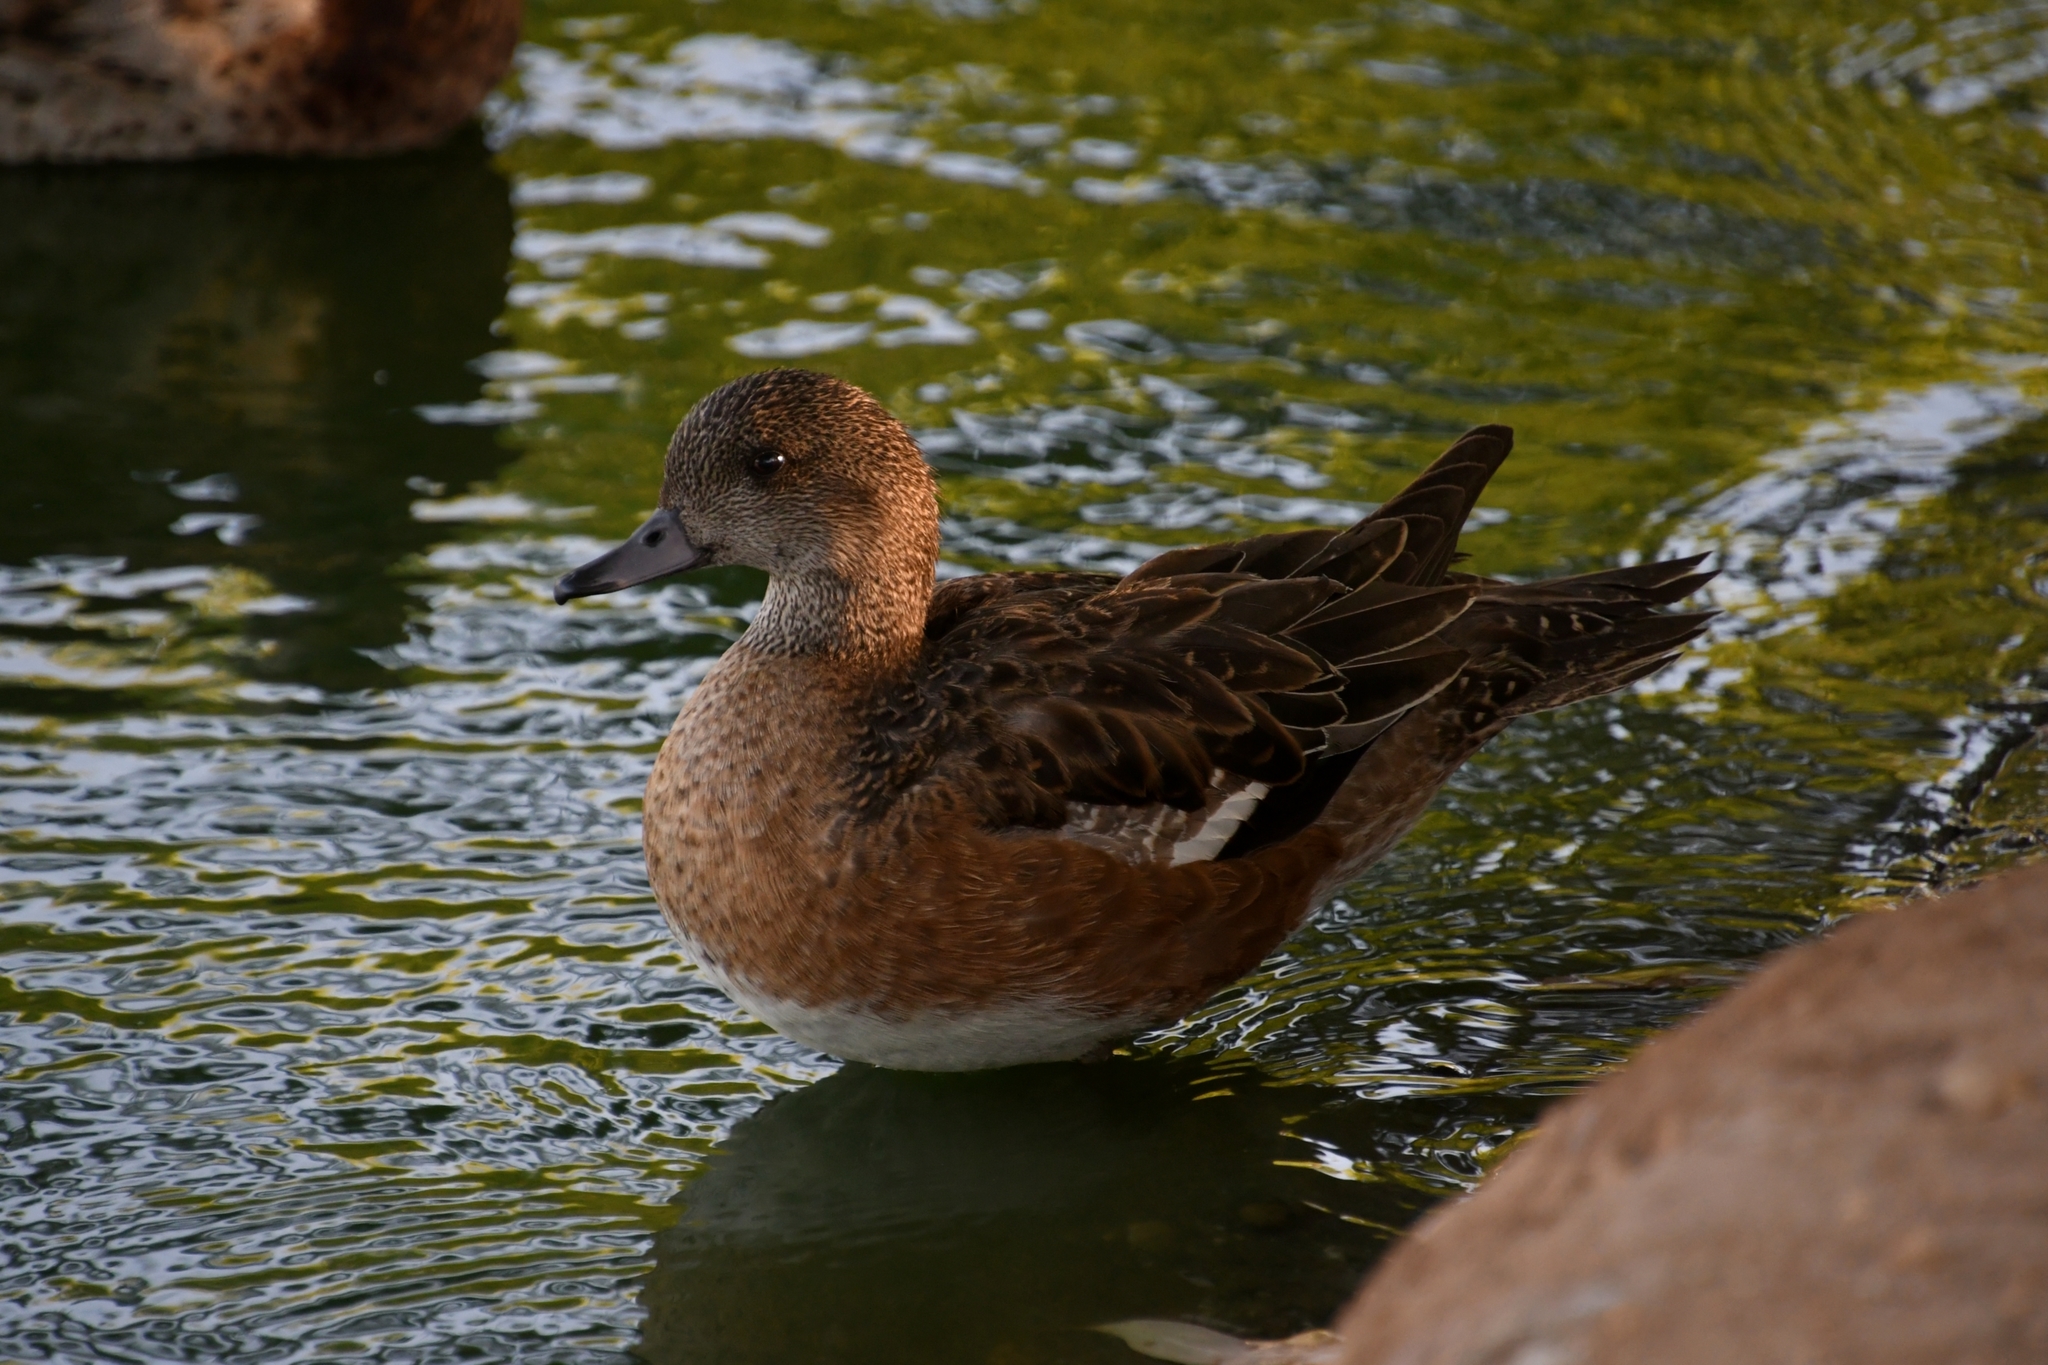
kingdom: Animalia
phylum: Chordata
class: Aves
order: Anseriformes
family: Anatidae
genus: Mareca
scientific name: Mareca americana
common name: American wigeon
